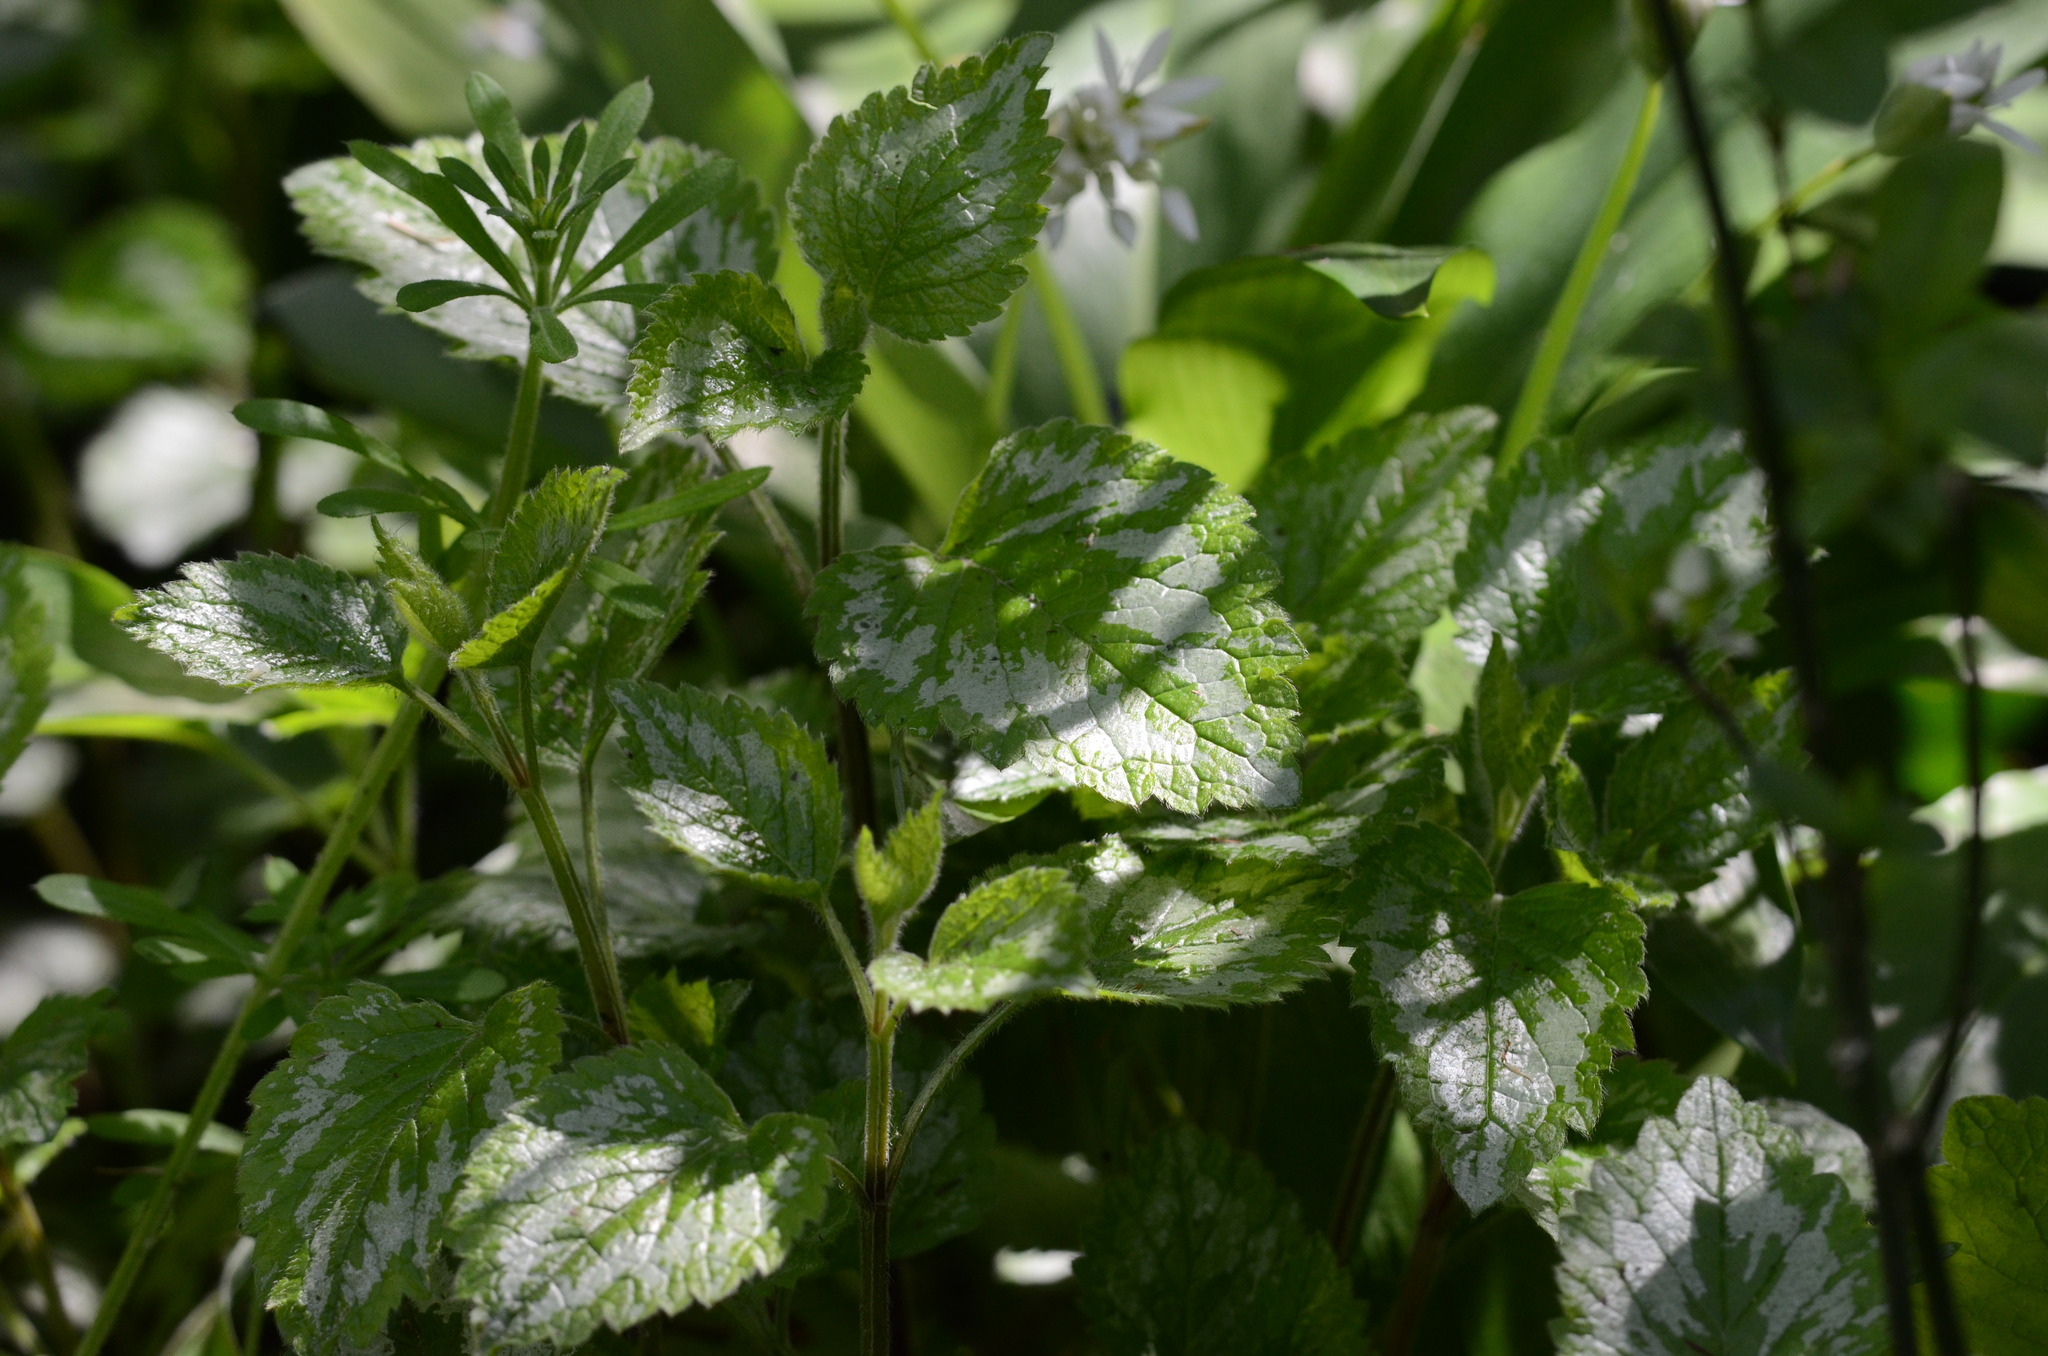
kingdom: Plantae
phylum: Tracheophyta
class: Magnoliopsida
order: Lamiales
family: Lamiaceae
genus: Lamium
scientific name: Lamium galeobdolon
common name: Yellow archangel
